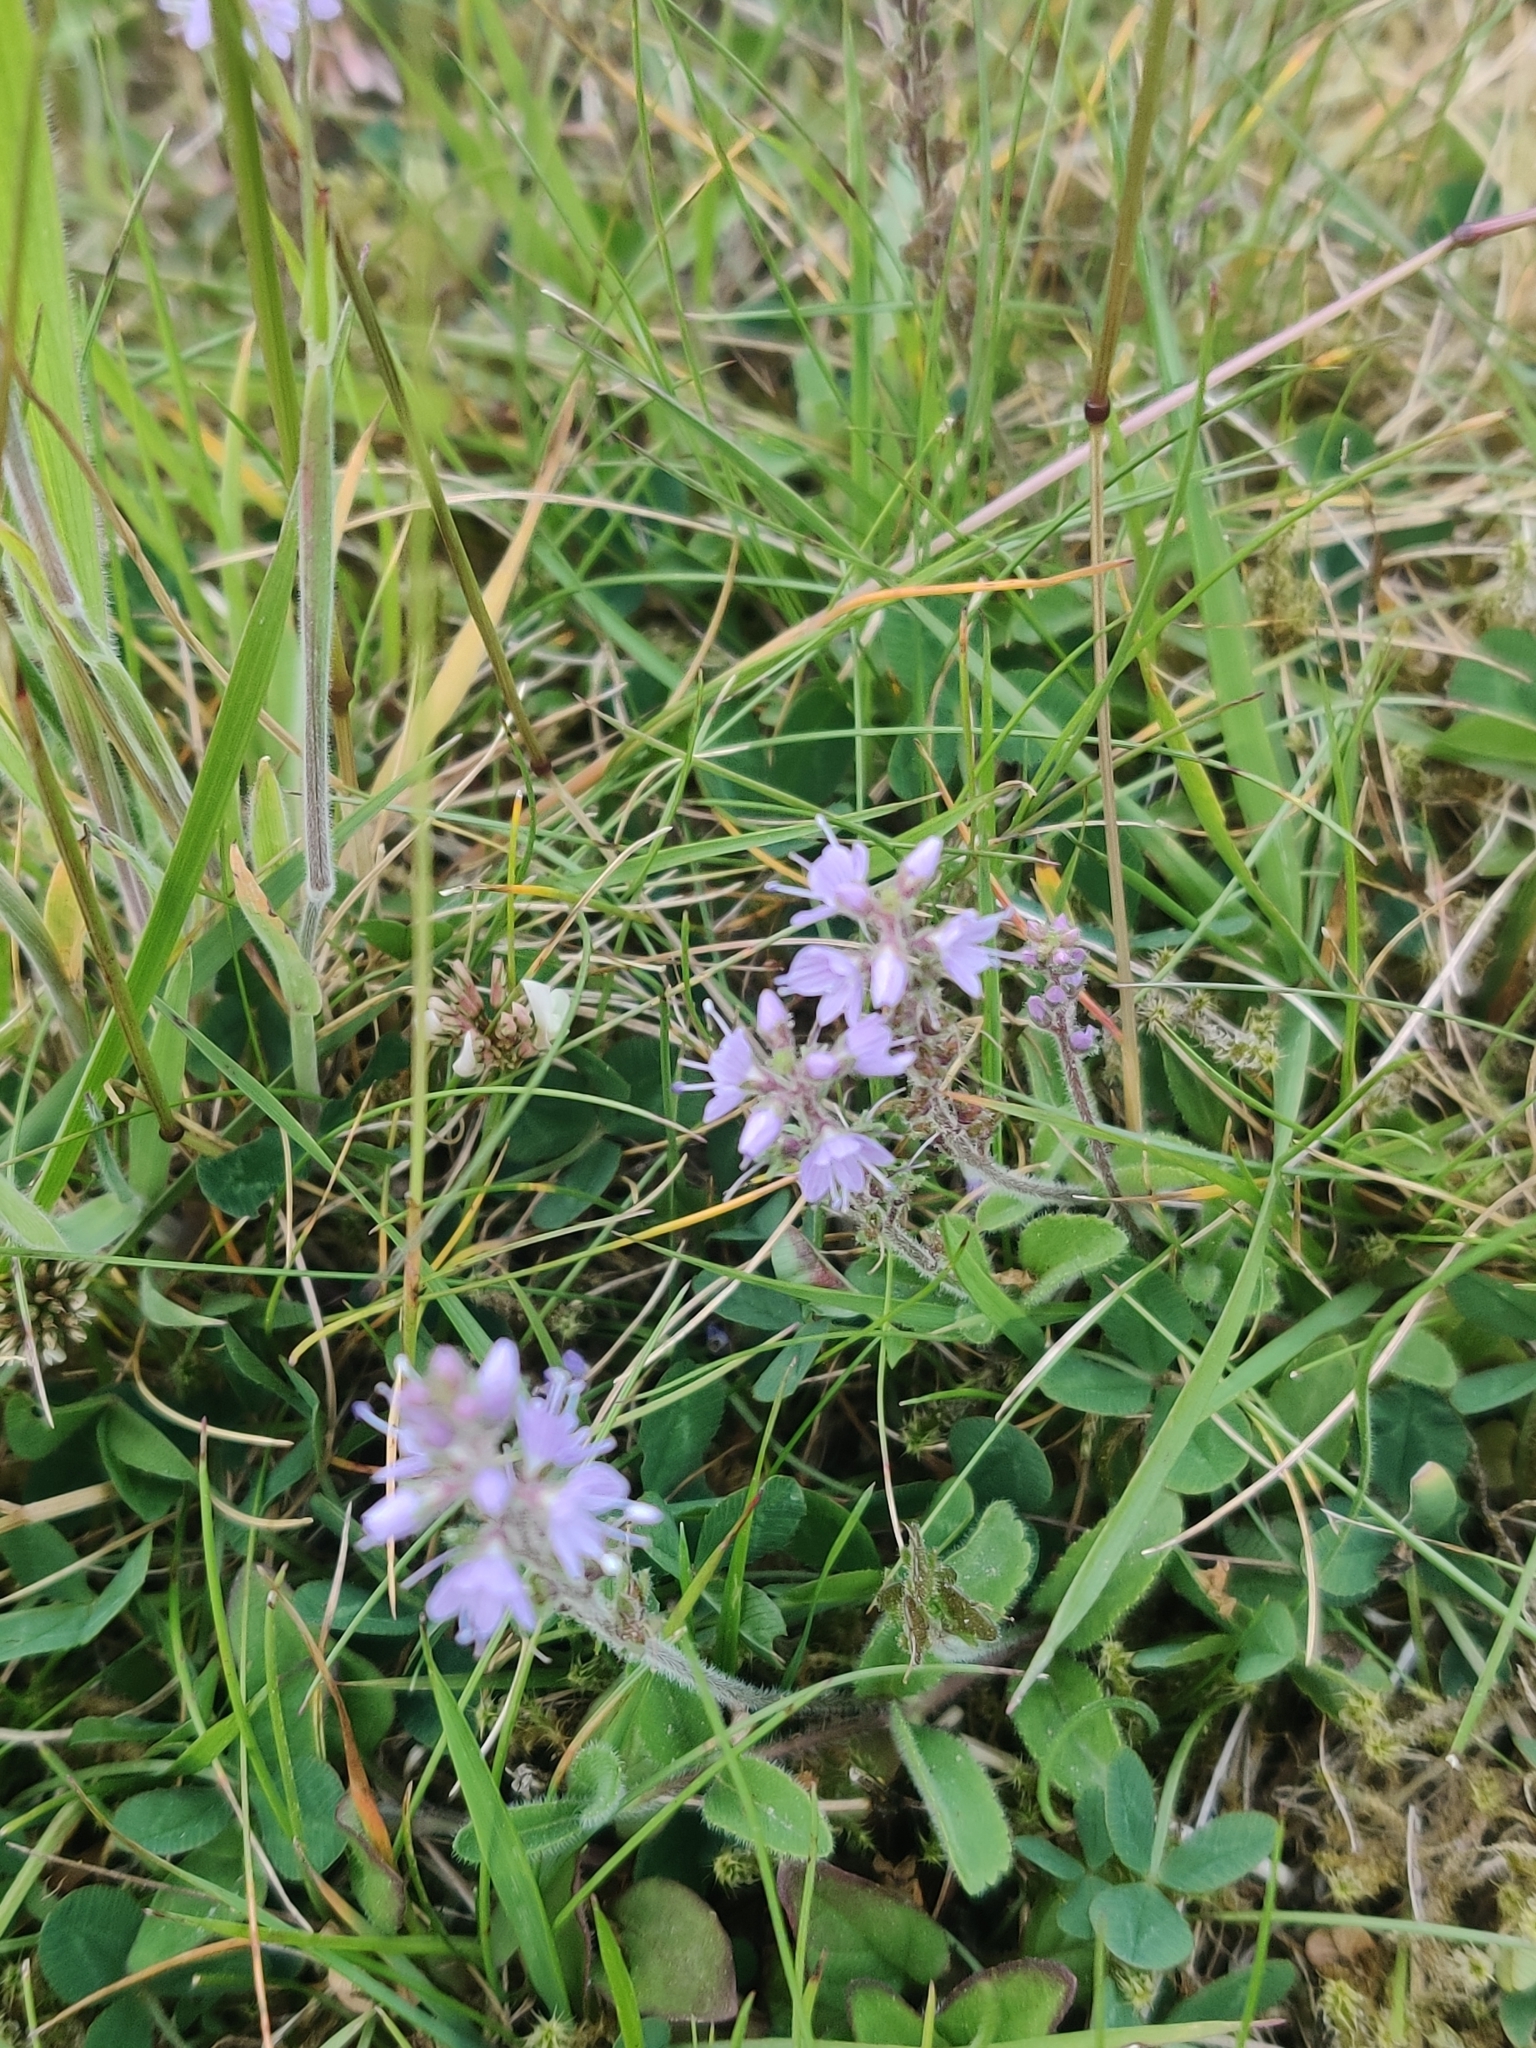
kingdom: Plantae
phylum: Tracheophyta
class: Magnoliopsida
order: Lamiales
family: Plantaginaceae
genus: Veronica
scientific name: Veronica officinalis
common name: Common speedwell
